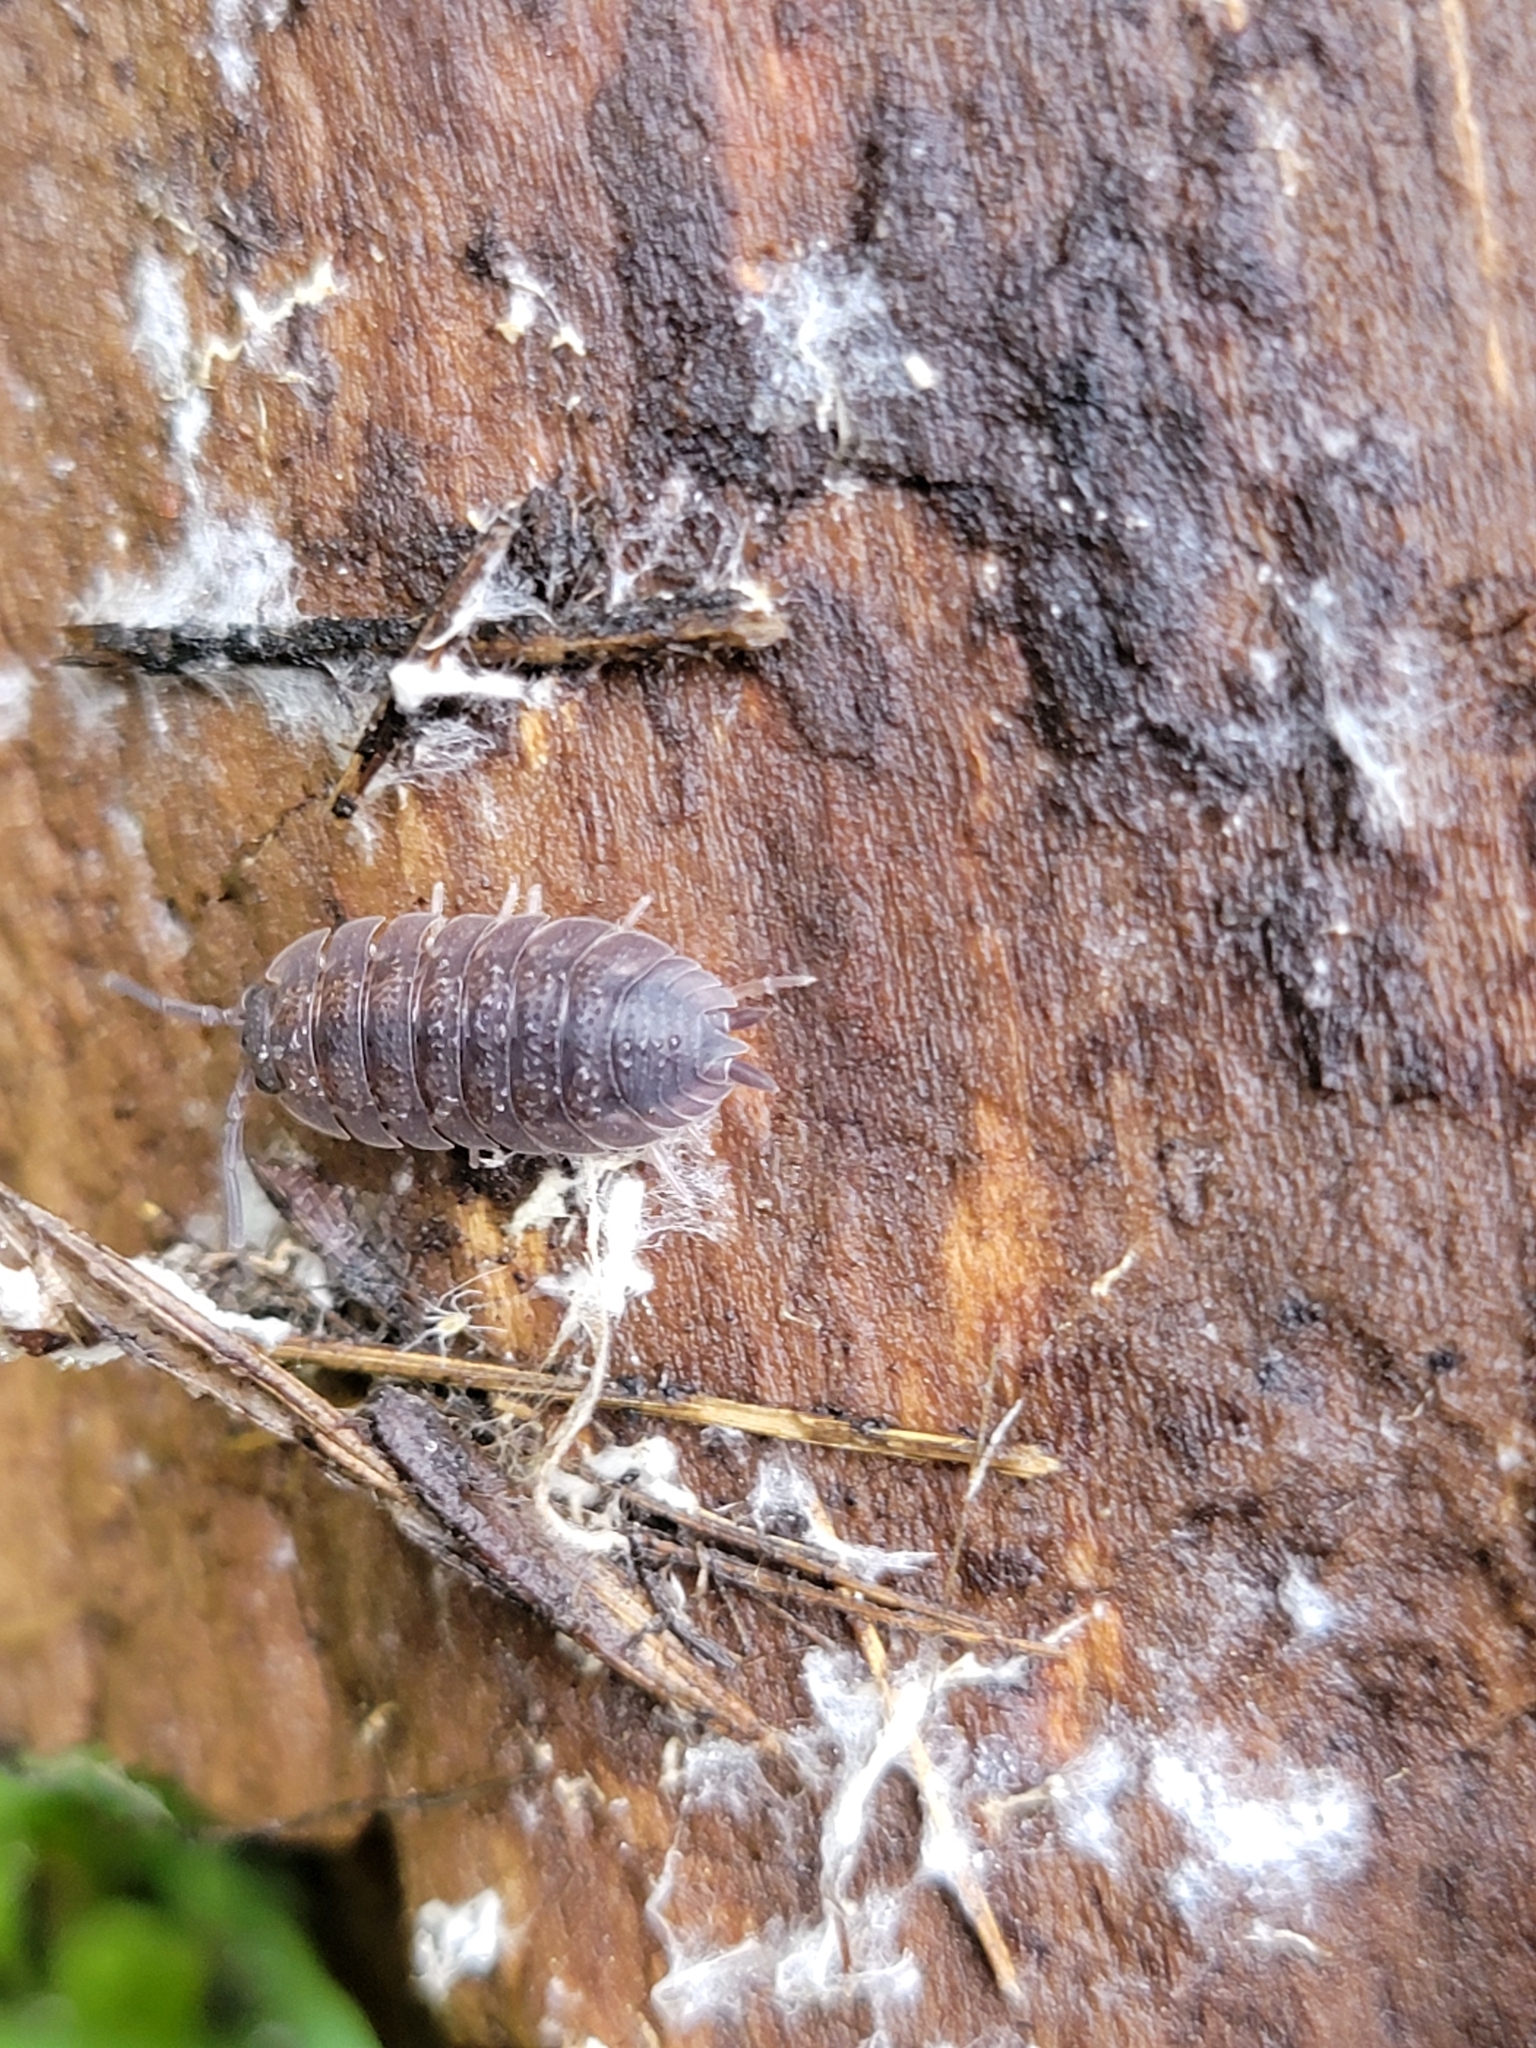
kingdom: Animalia
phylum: Arthropoda
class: Malacostraca
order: Isopoda
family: Porcellionidae
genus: Porcellio
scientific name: Porcellio scaber
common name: Common rough woodlouse
